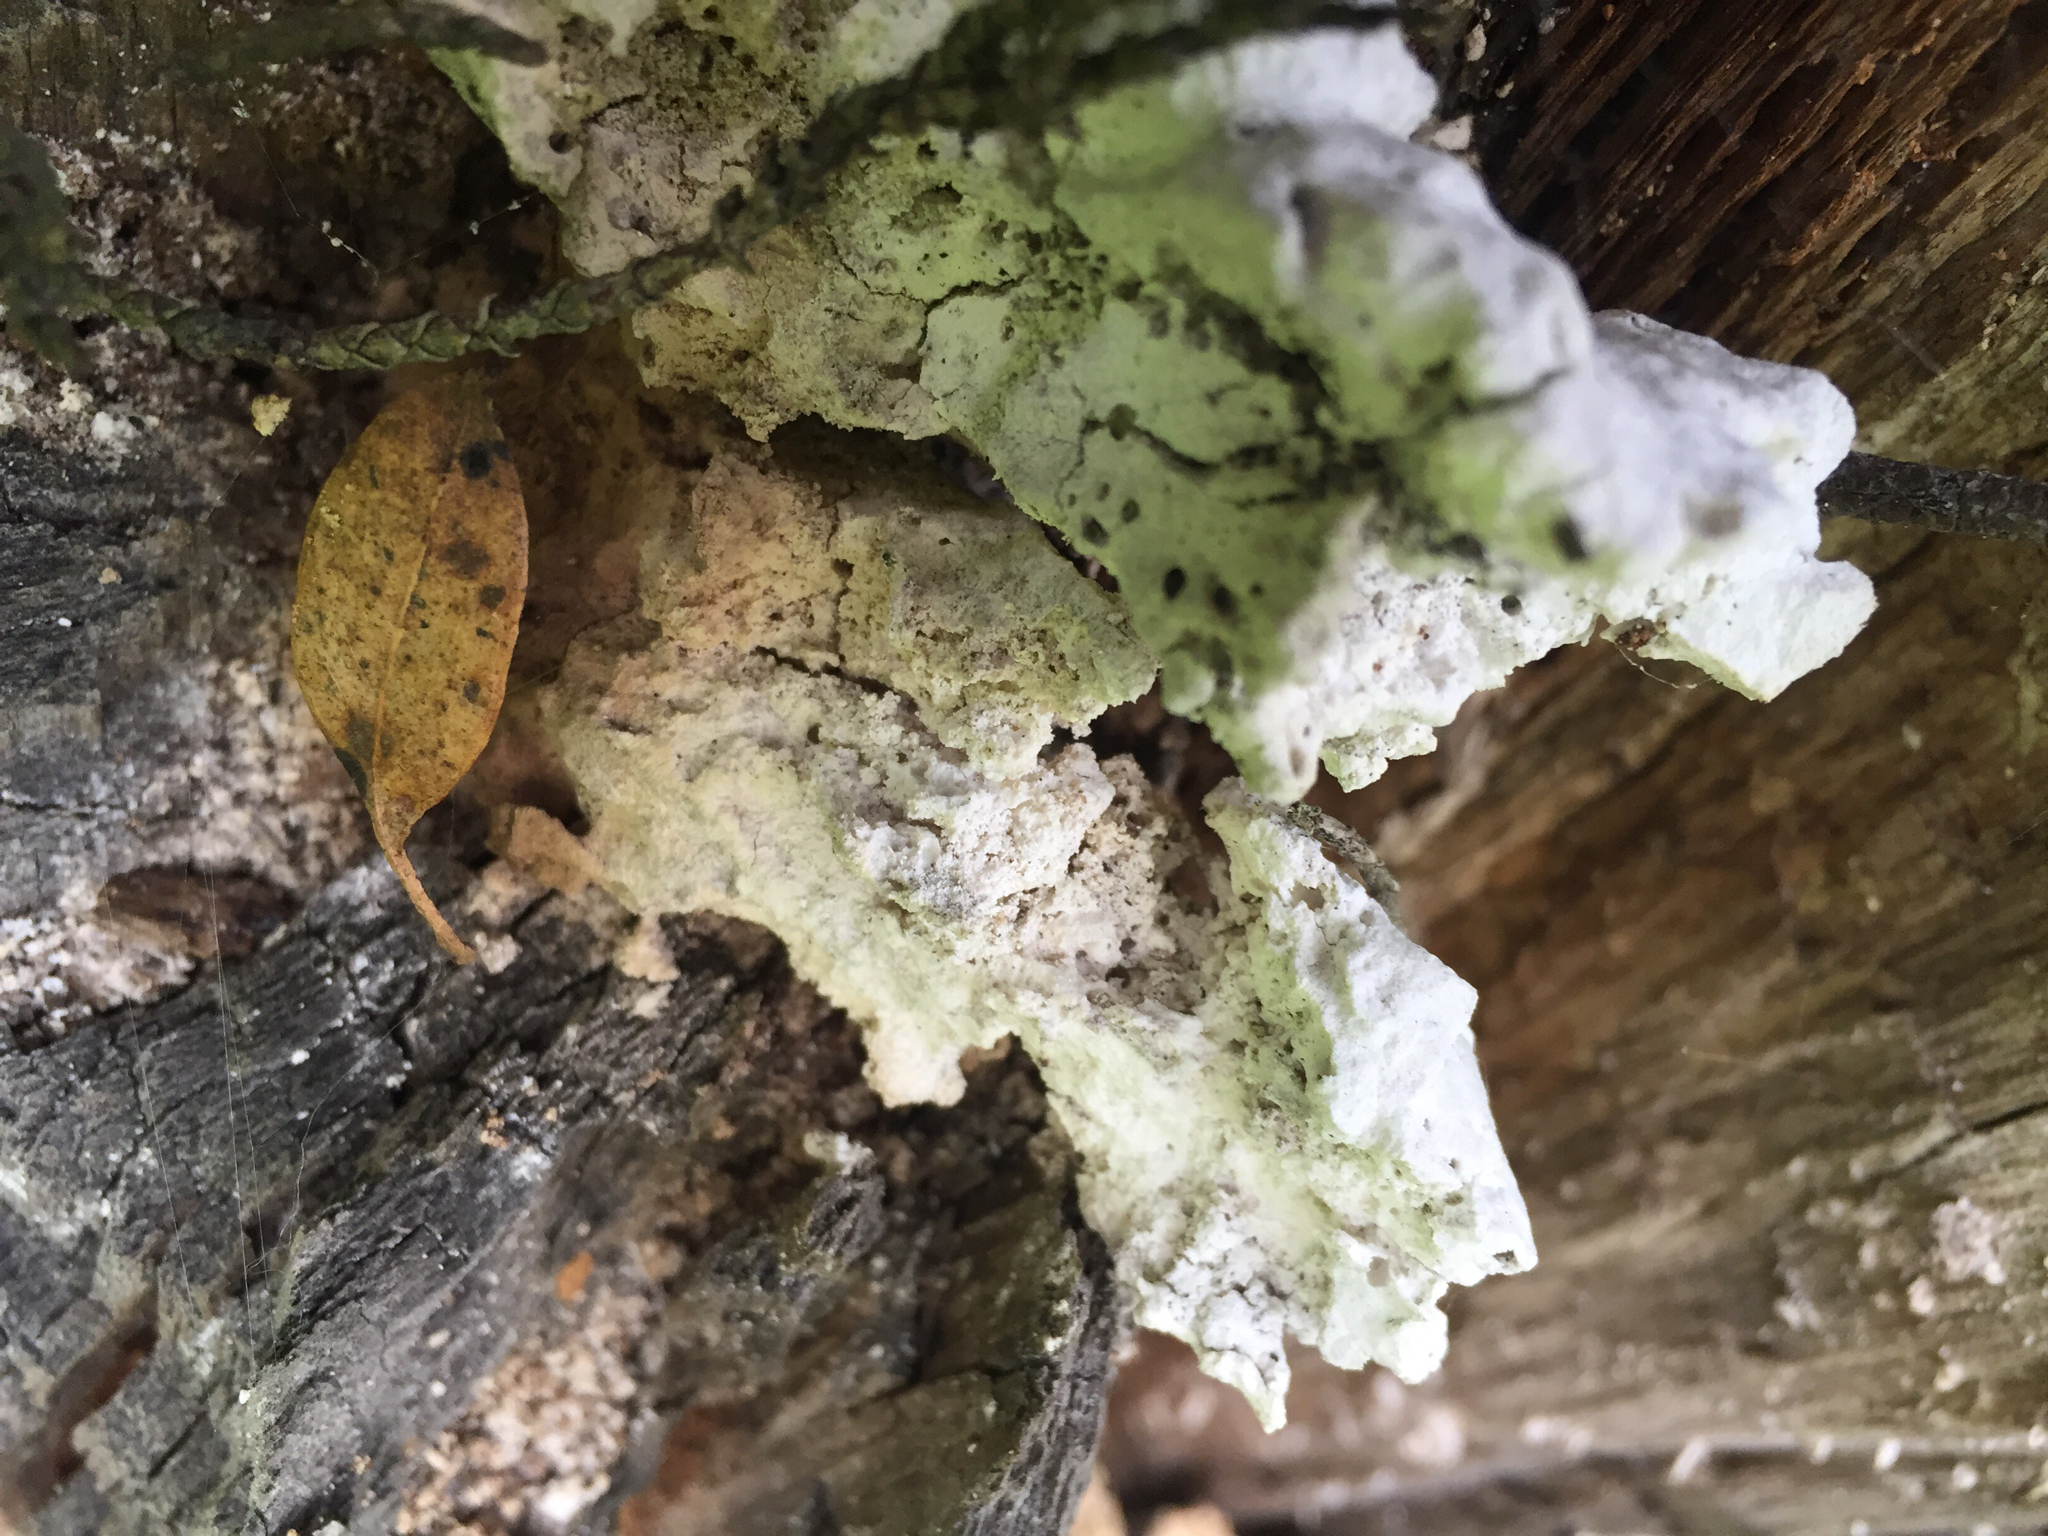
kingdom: Fungi
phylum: Basidiomycota
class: Agaricomycetes
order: Polyporales
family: Laetiporaceae
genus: Laetiporus
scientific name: Laetiporus gilbertsonii
